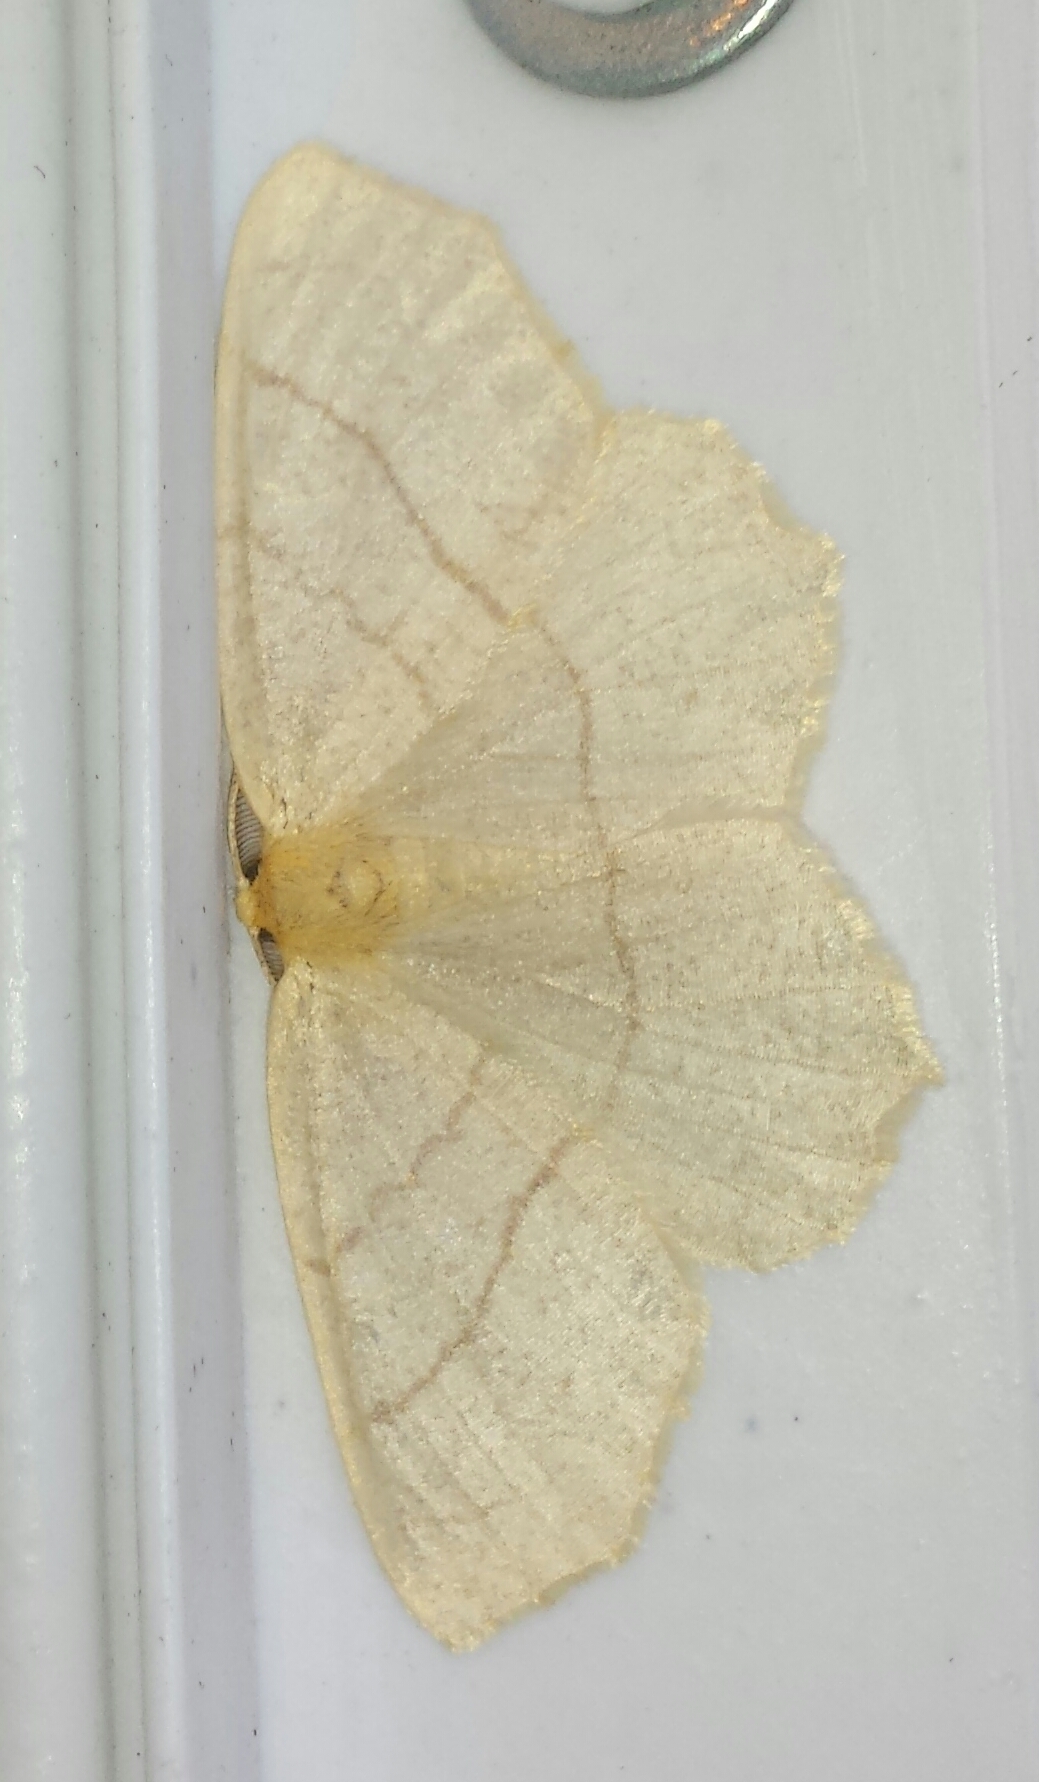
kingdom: Animalia
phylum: Arthropoda
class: Insecta
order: Lepidoptera
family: Geometridae
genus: Besma
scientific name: Besma endropiaria
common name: Straw besma
